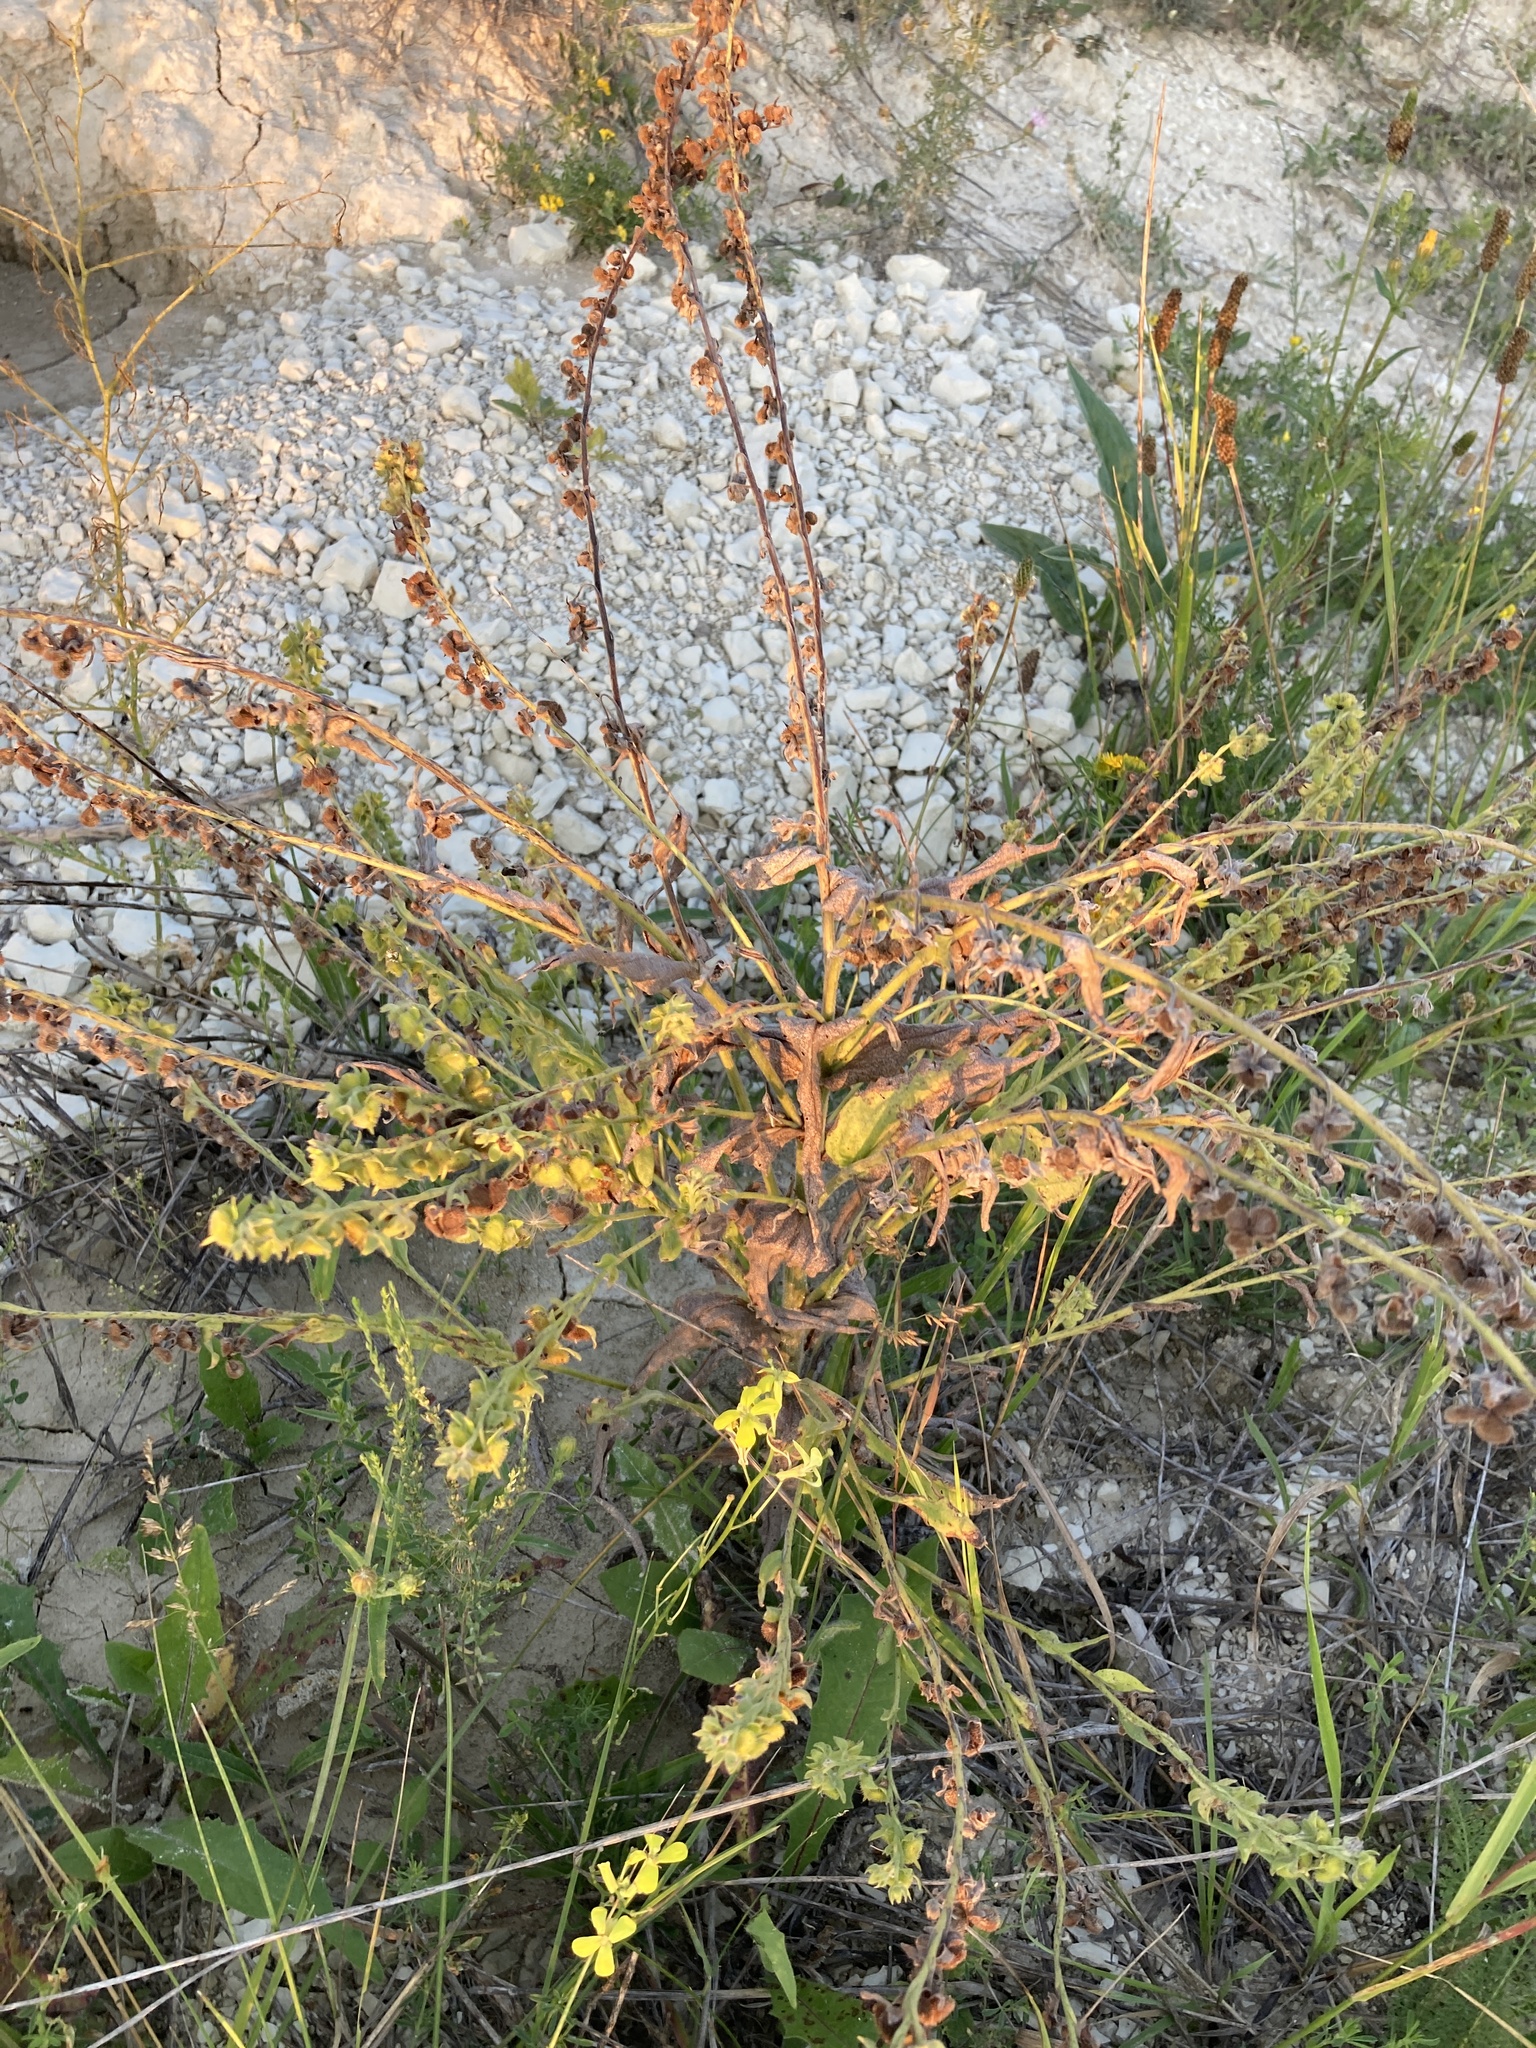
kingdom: Plantae
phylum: Tracheophyta
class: Magnoliopsida
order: Boraginales
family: Boraginaceae
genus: Cynoglossum
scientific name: Cynoglossum officinale
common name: Hound's-tongue
